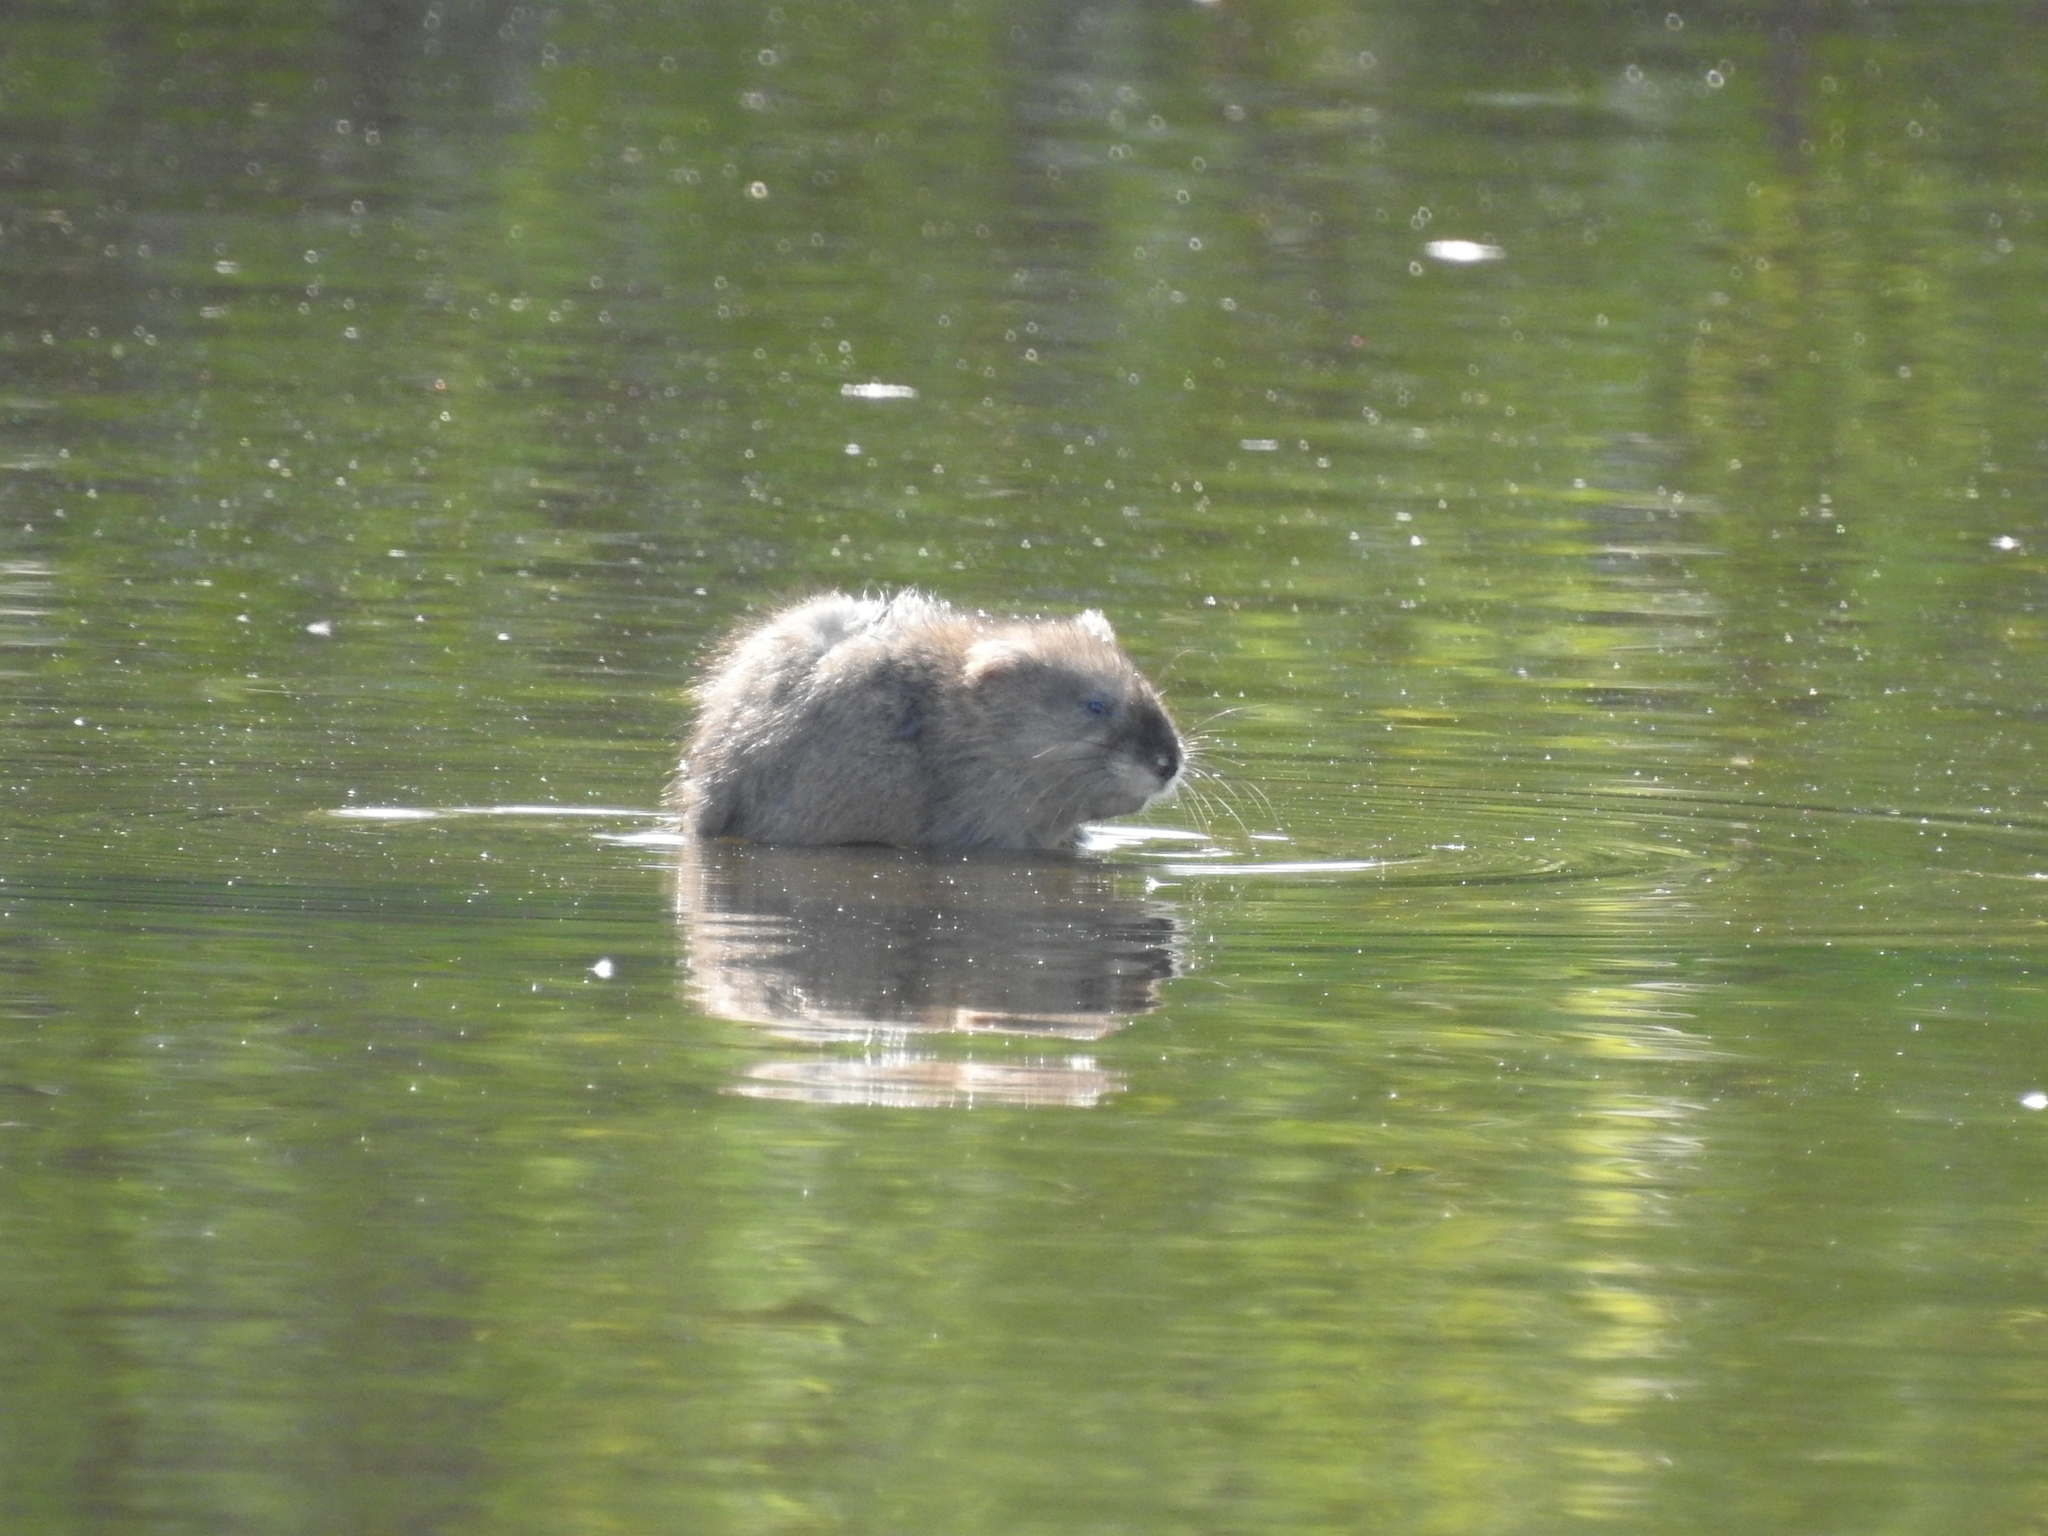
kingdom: Animalia
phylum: Chordata
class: Mammalia
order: Rodentia
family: Cricetidae
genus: Ondatra
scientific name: Ondatra zibethicus
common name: Muskrat
